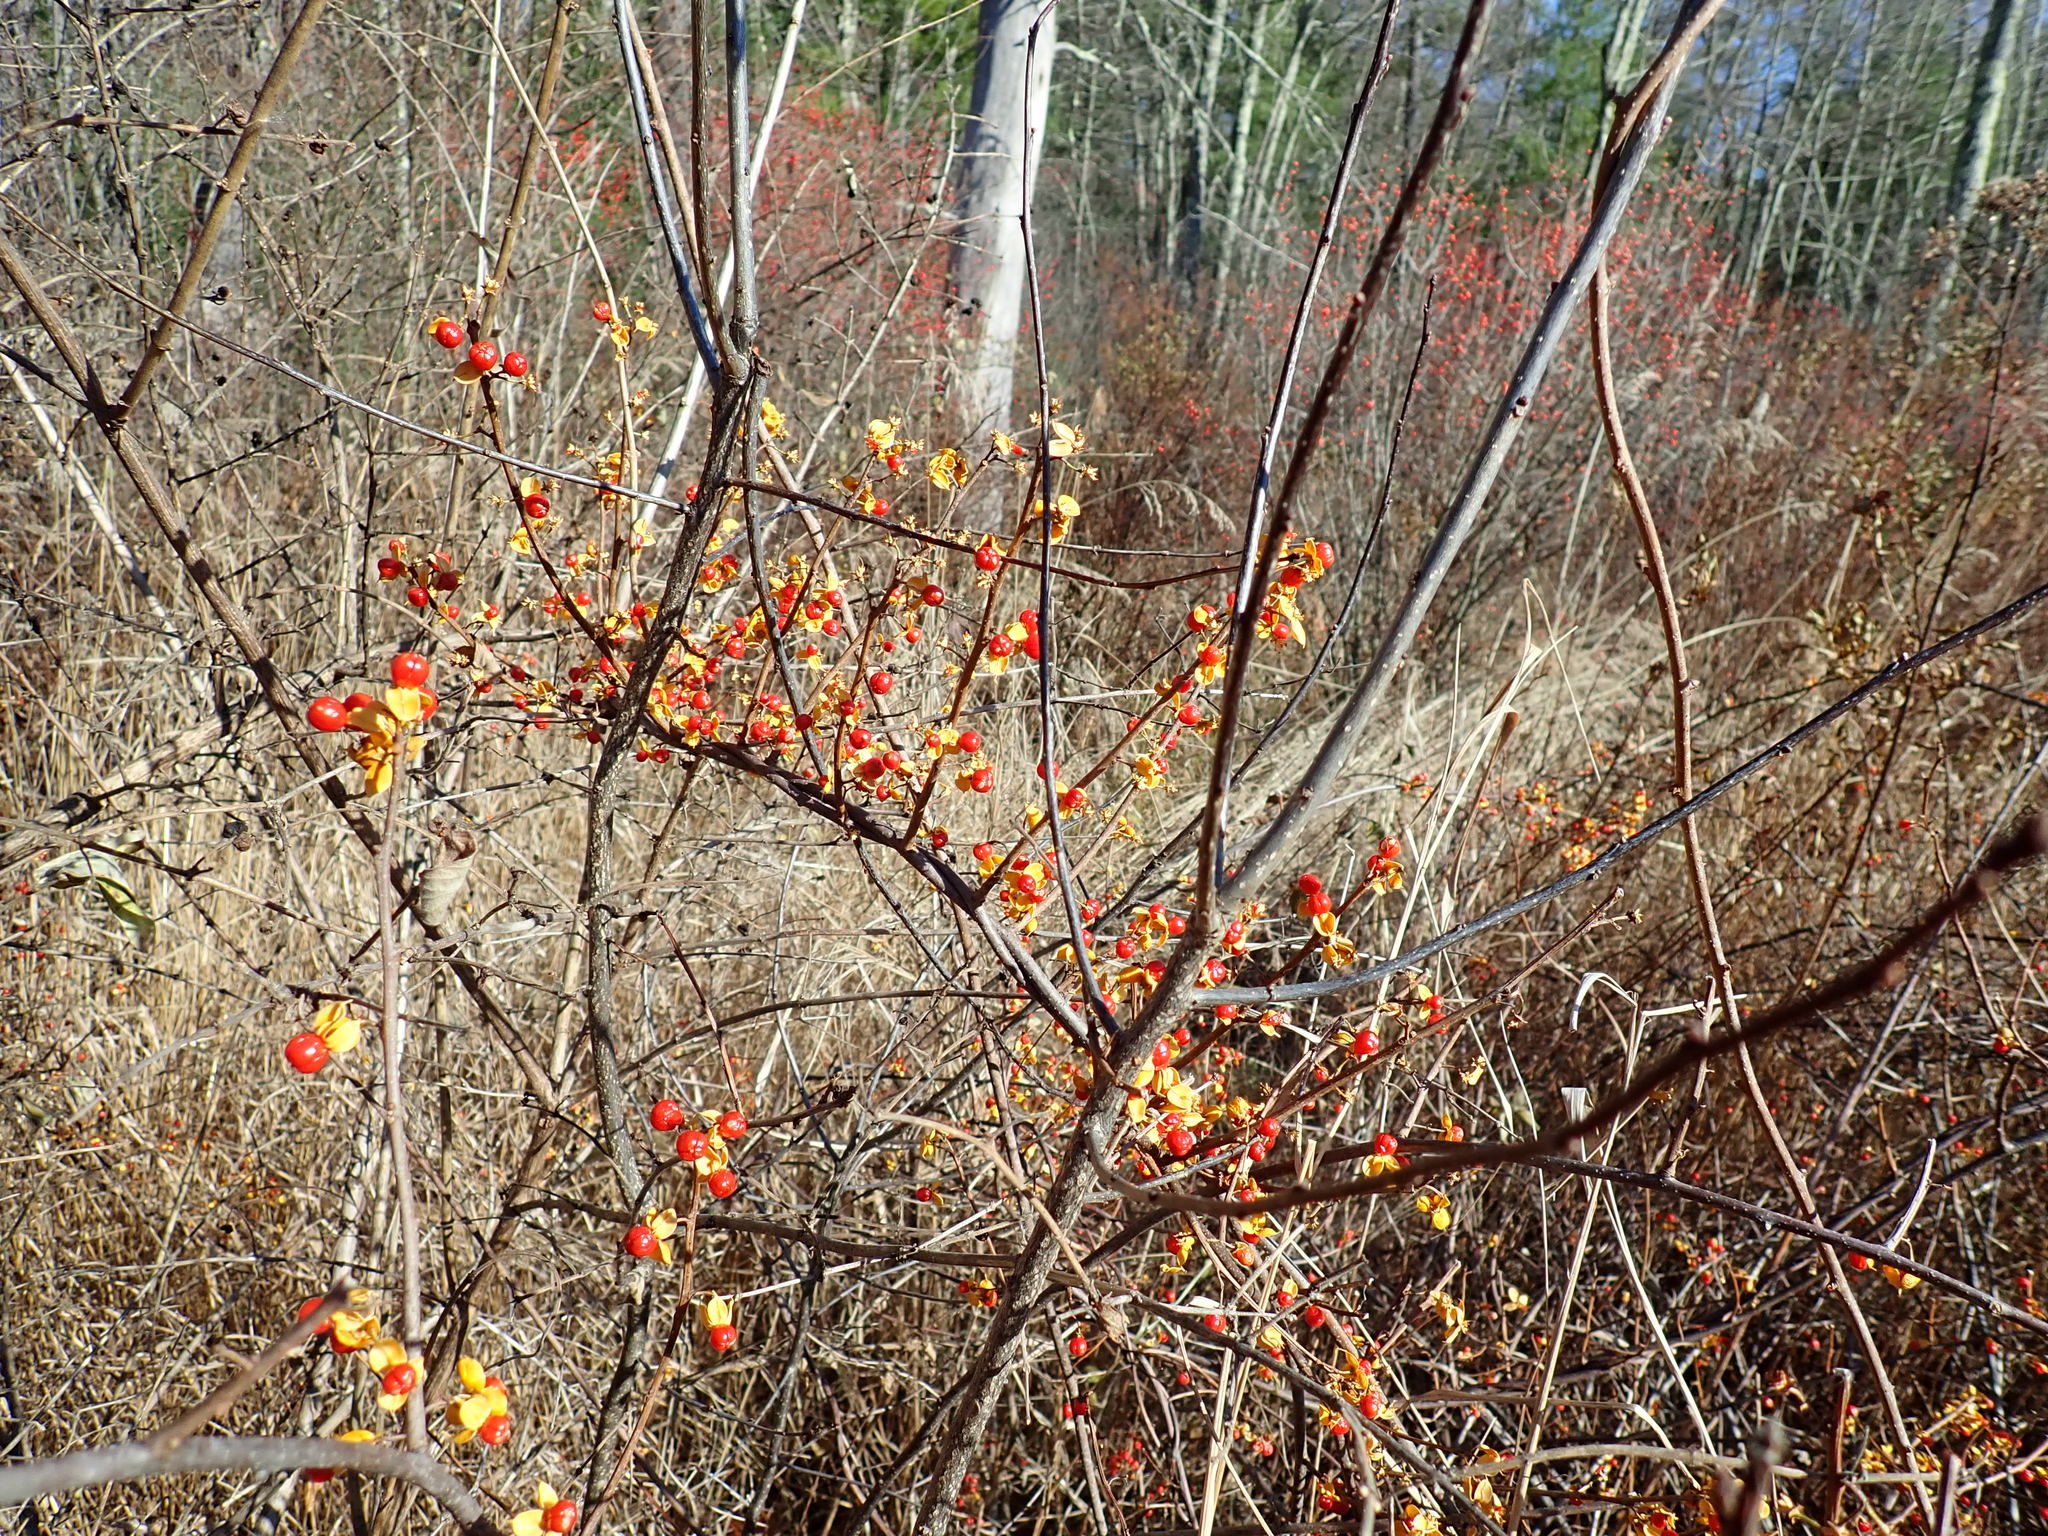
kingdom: Plantae
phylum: Tracheophyta
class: Magnoliopsida
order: Celastrales
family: Celastraceae
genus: Celastrus
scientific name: Celastrus orbiculatus
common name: Oriental bittersweet
